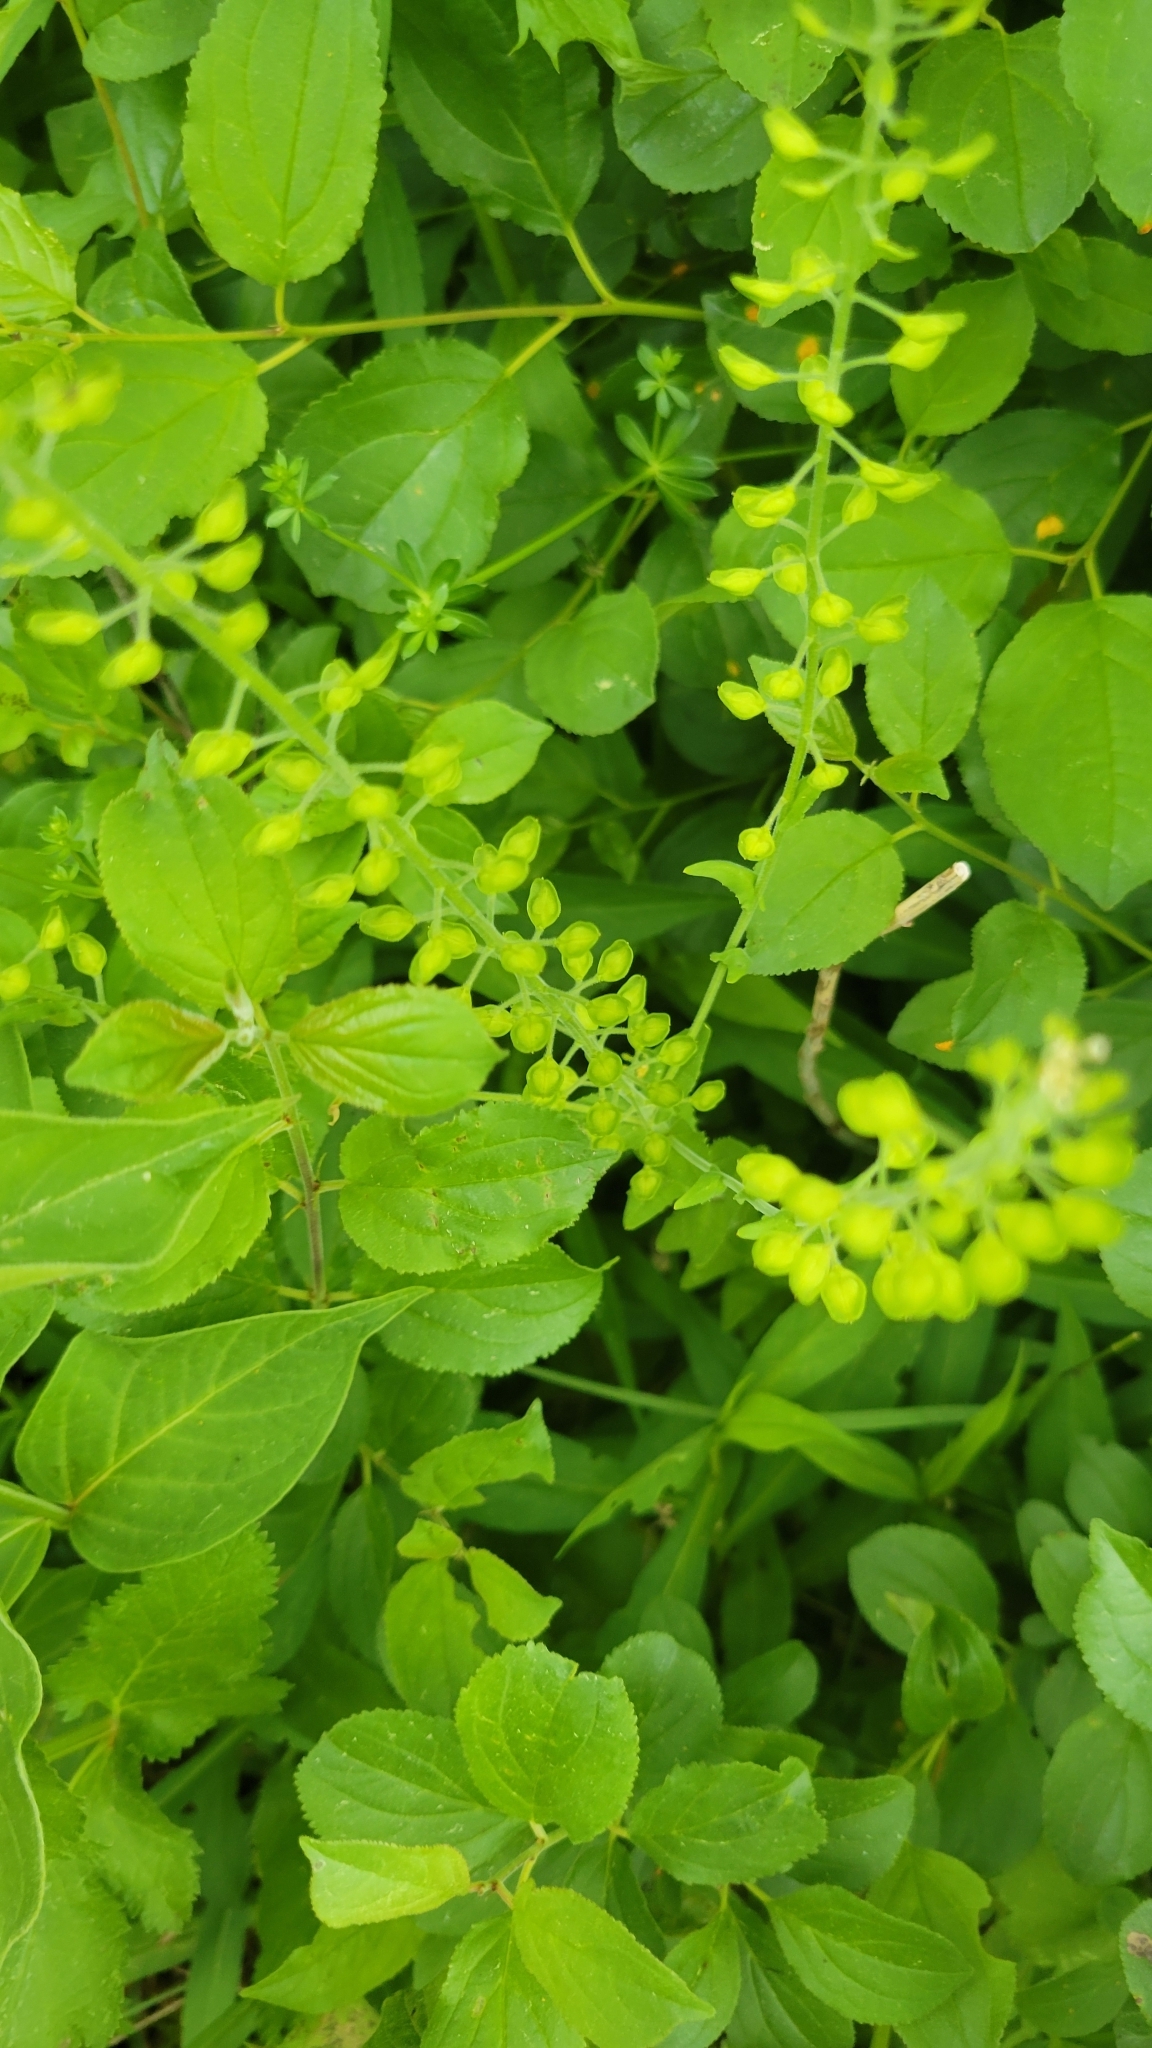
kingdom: Plantae
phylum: Tracheophyta
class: Magnoliopsida
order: Brassicales
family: Brassicaceae
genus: Lepidium
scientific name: Lepidium campestre
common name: Field pepperwort
